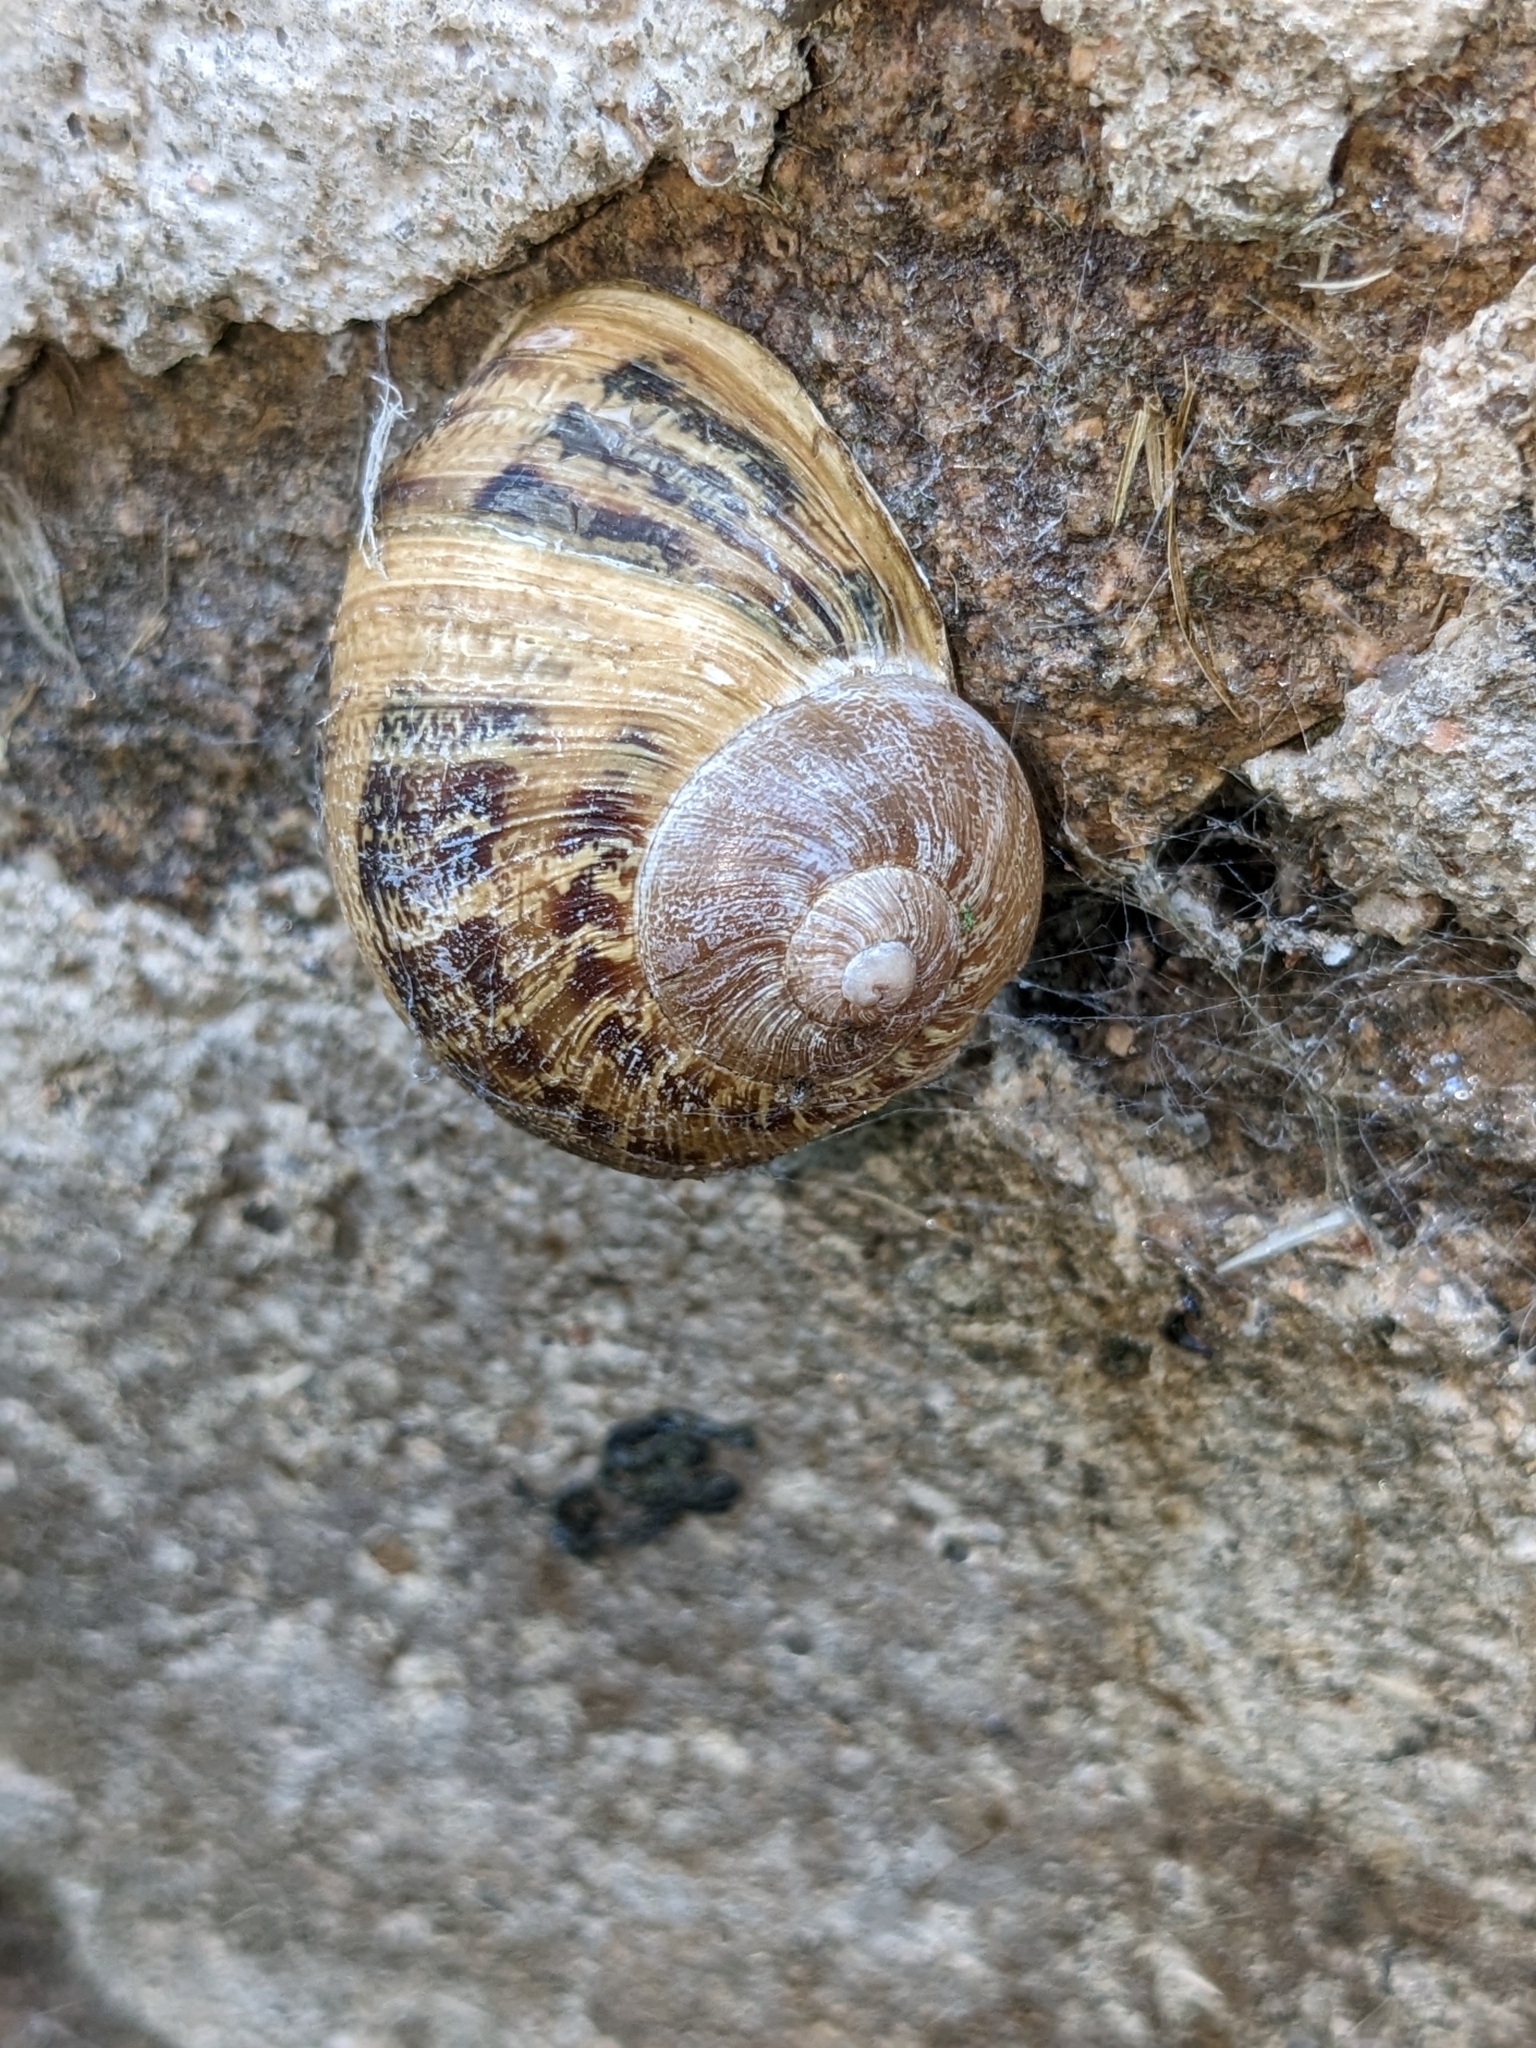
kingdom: Animalia
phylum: Mollusca
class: Gastropoda
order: Stylommatophora
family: Helicidae
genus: Cornu
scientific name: Cornu aspersum
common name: Brown garden snail
